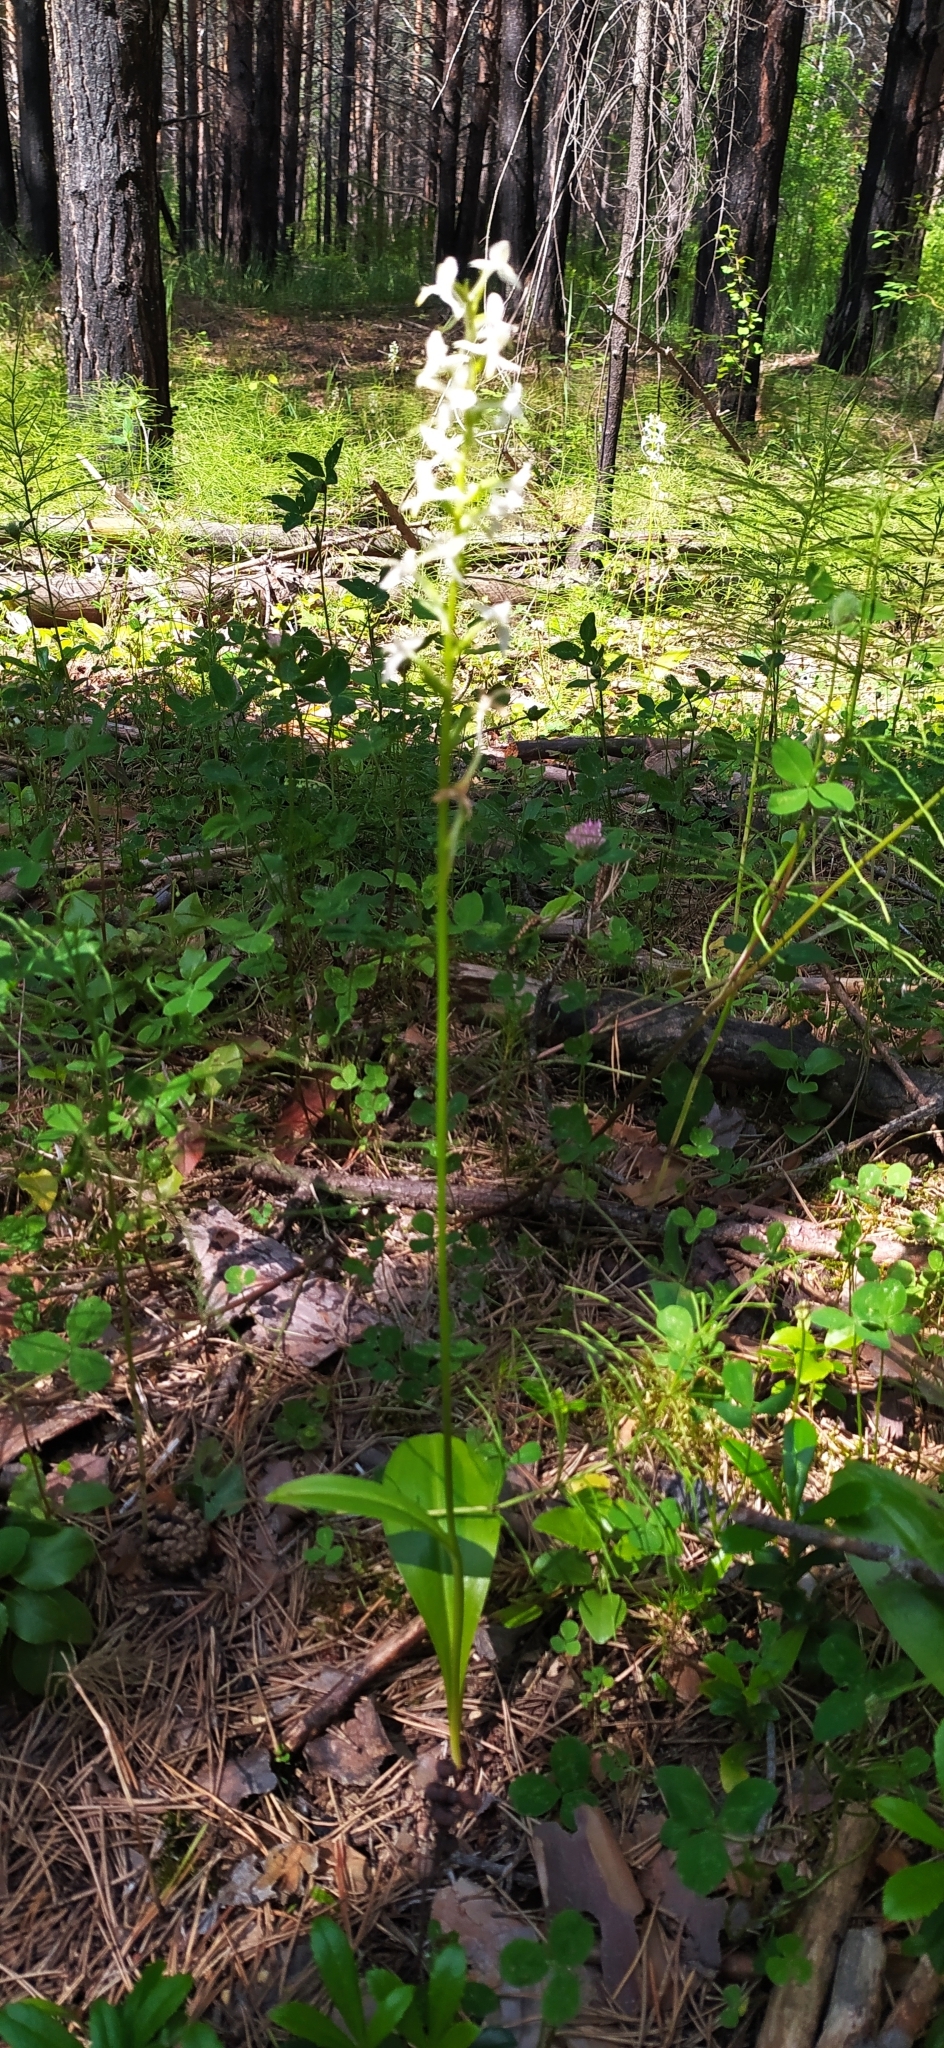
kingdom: Plantae
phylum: Tracheophyta
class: Liliopsida
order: Asparagales
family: Orchidaceae
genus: Platanthera
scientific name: Platanthera bifolia
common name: Lesser butterfly-orchid
